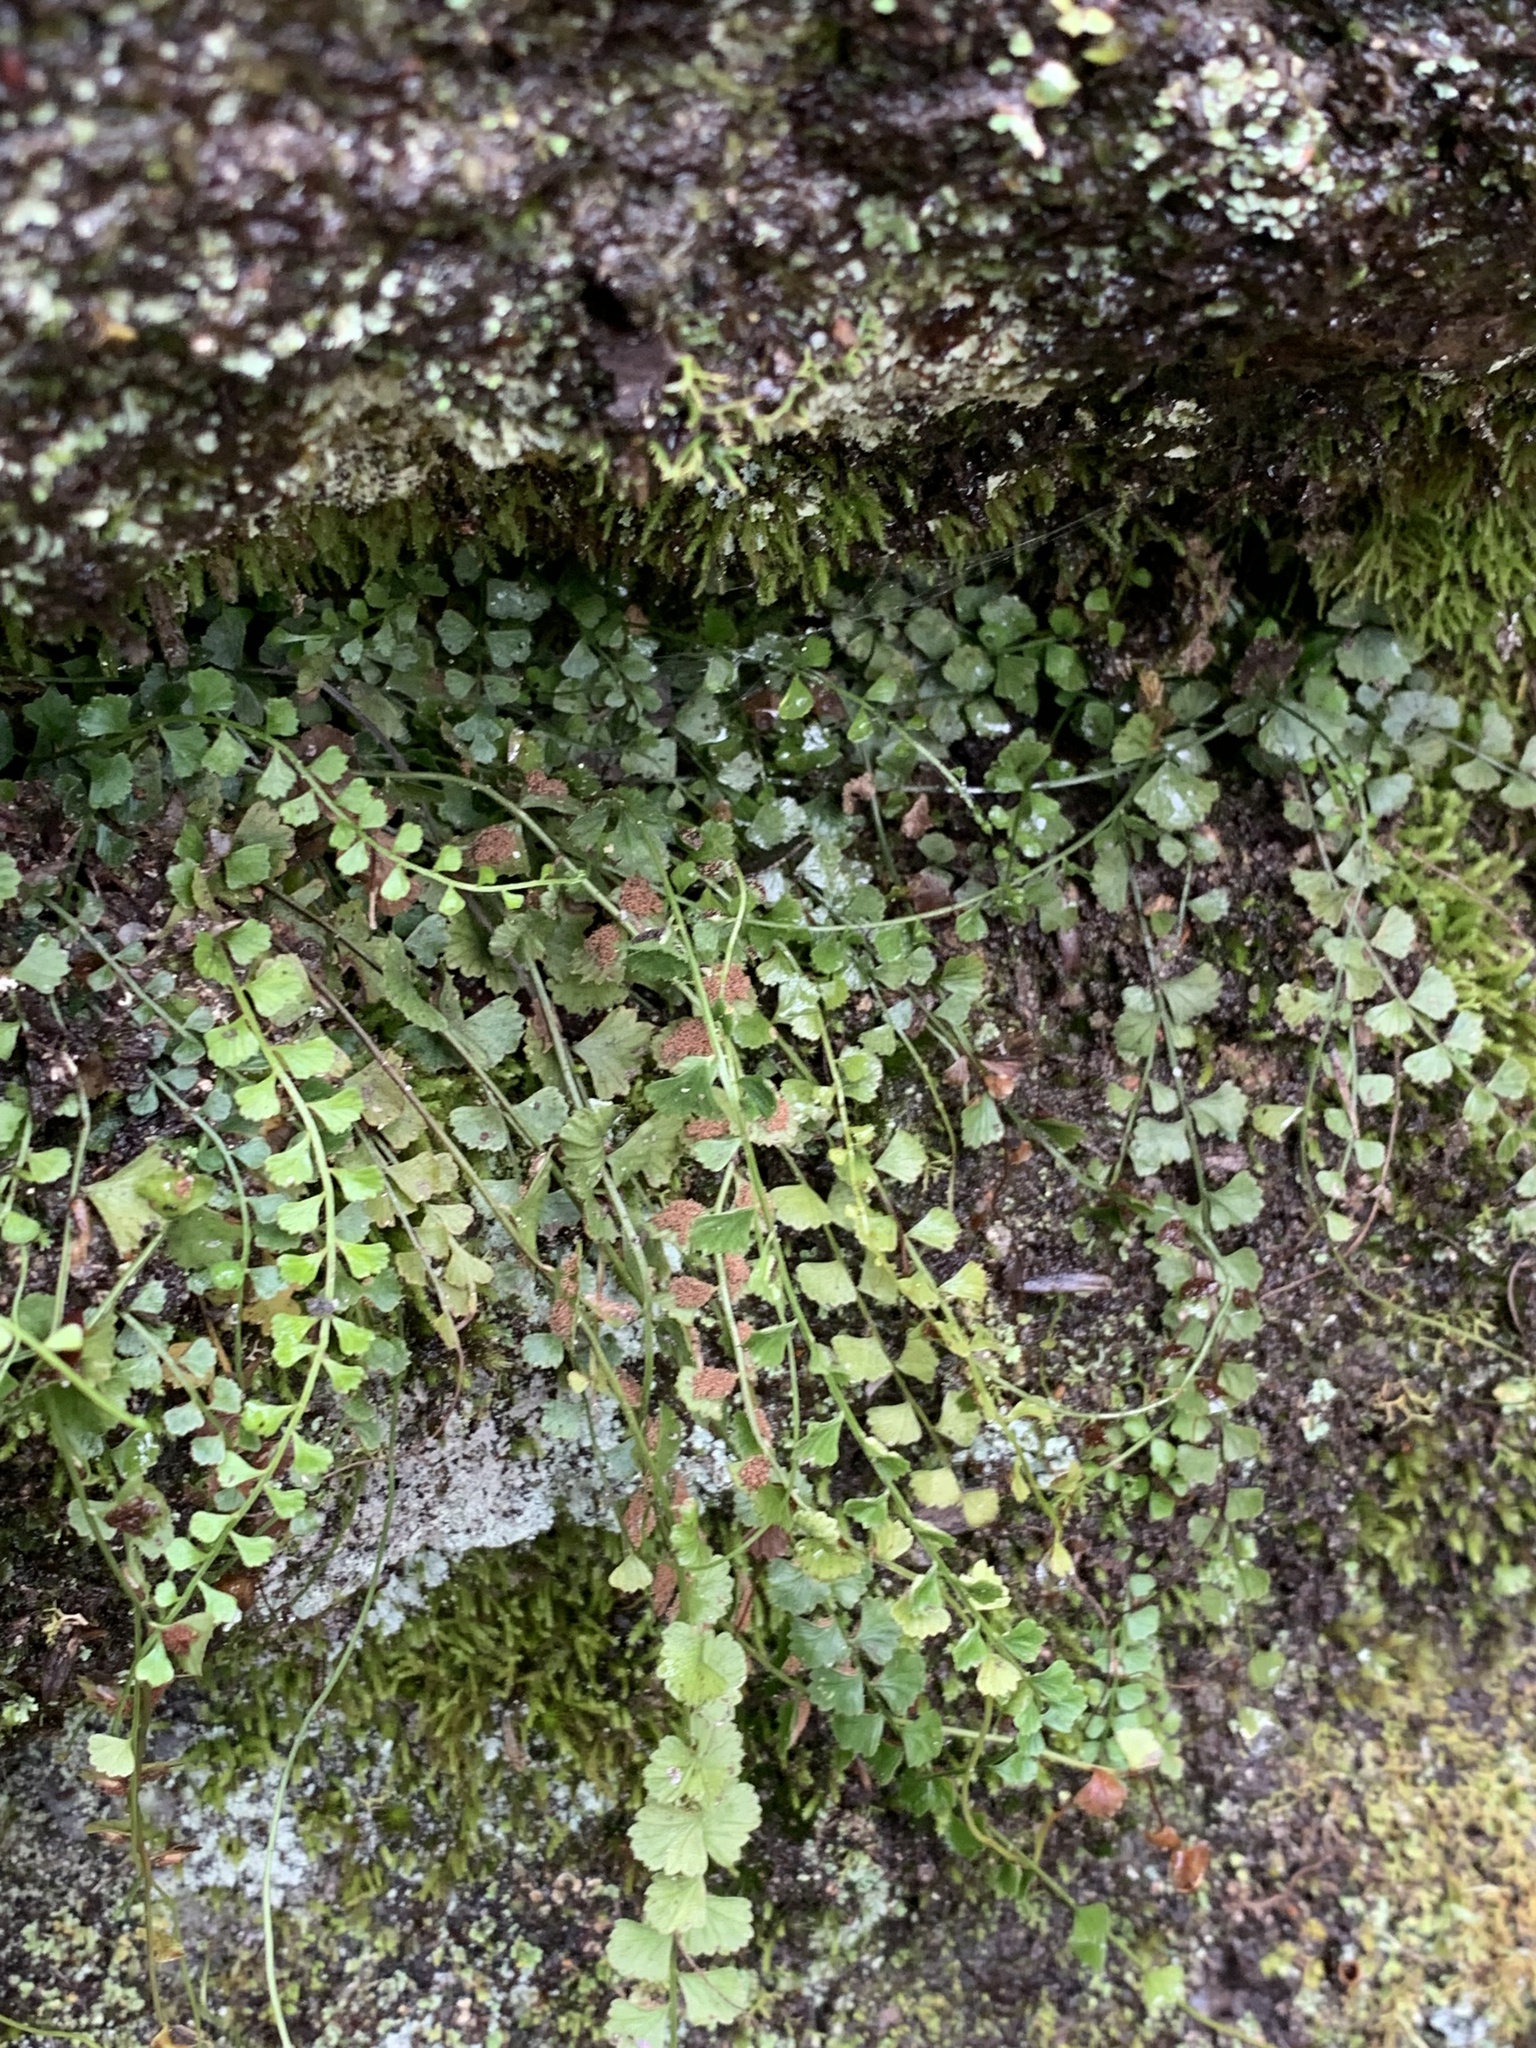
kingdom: Plantae
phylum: Tracheophyta
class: Polypodiopsida
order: Polypodiales
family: Aspleniaceae
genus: Asplenium
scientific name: Asplenium flabellifolium
